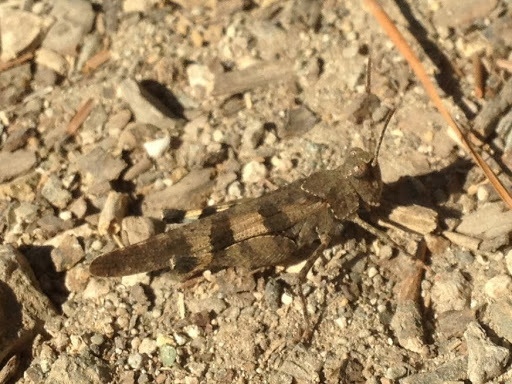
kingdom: Animalia
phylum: Arthropoda
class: Insecta
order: Orthoptera
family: Acrididae
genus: Trimerotropis
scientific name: Trimerotropis fontana
